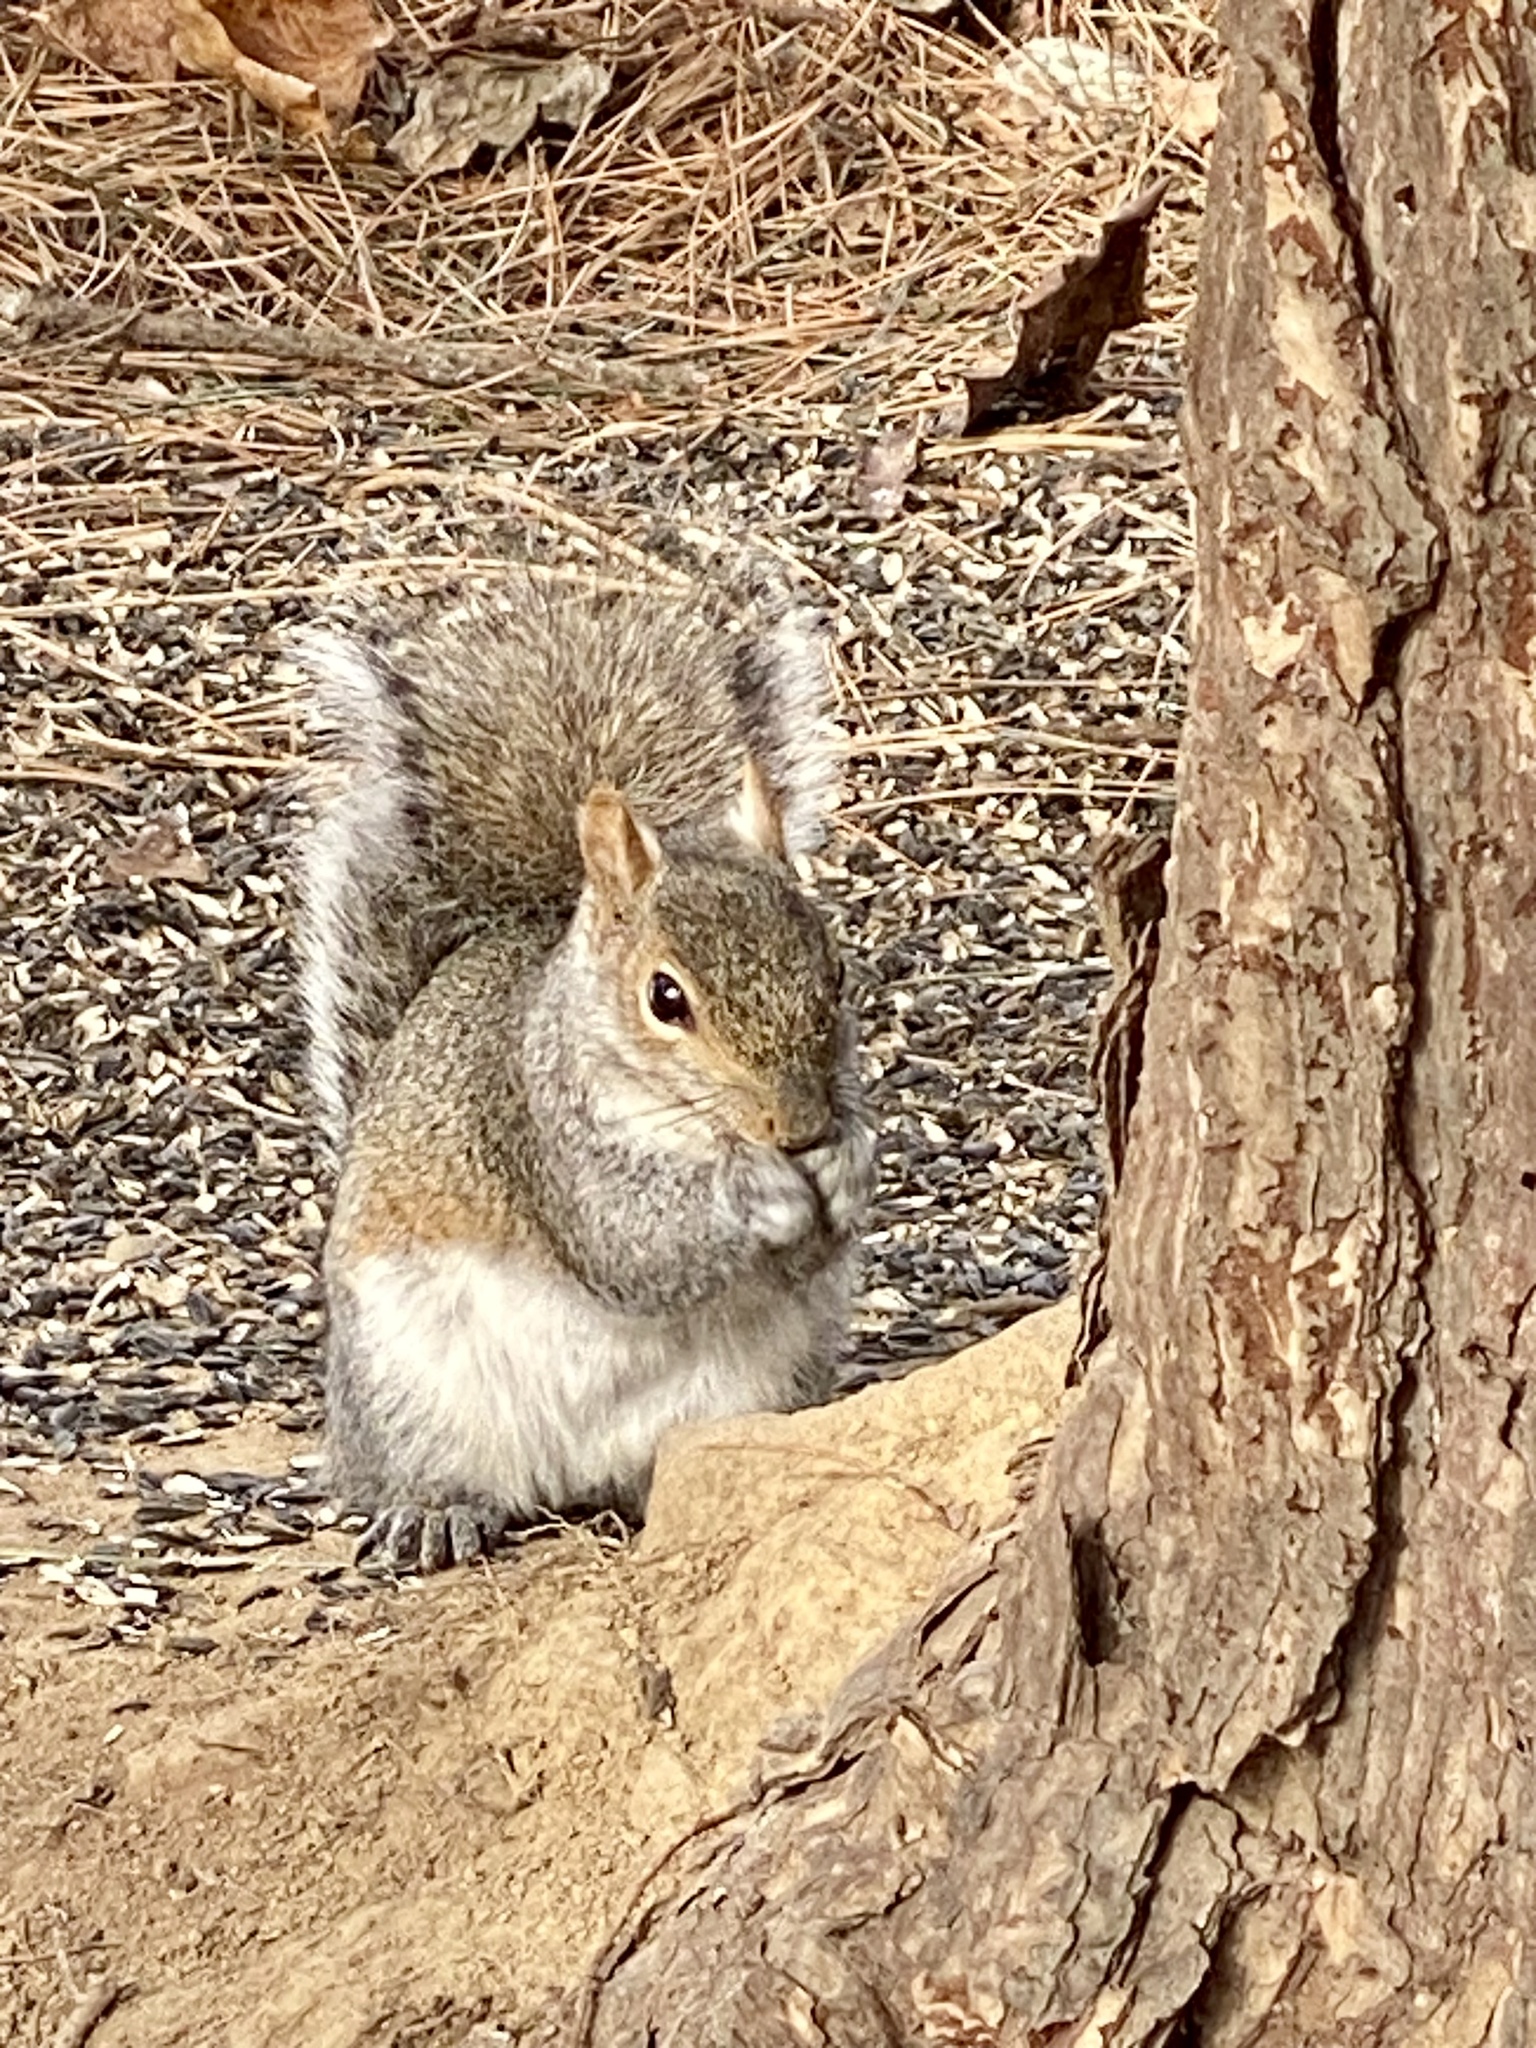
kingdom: Animalia
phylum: Chordata
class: Mammalia
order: Rodentia
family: Sciuridae
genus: Sciurus
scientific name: Sciurus carolinensis
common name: Eastern gray squirrel
